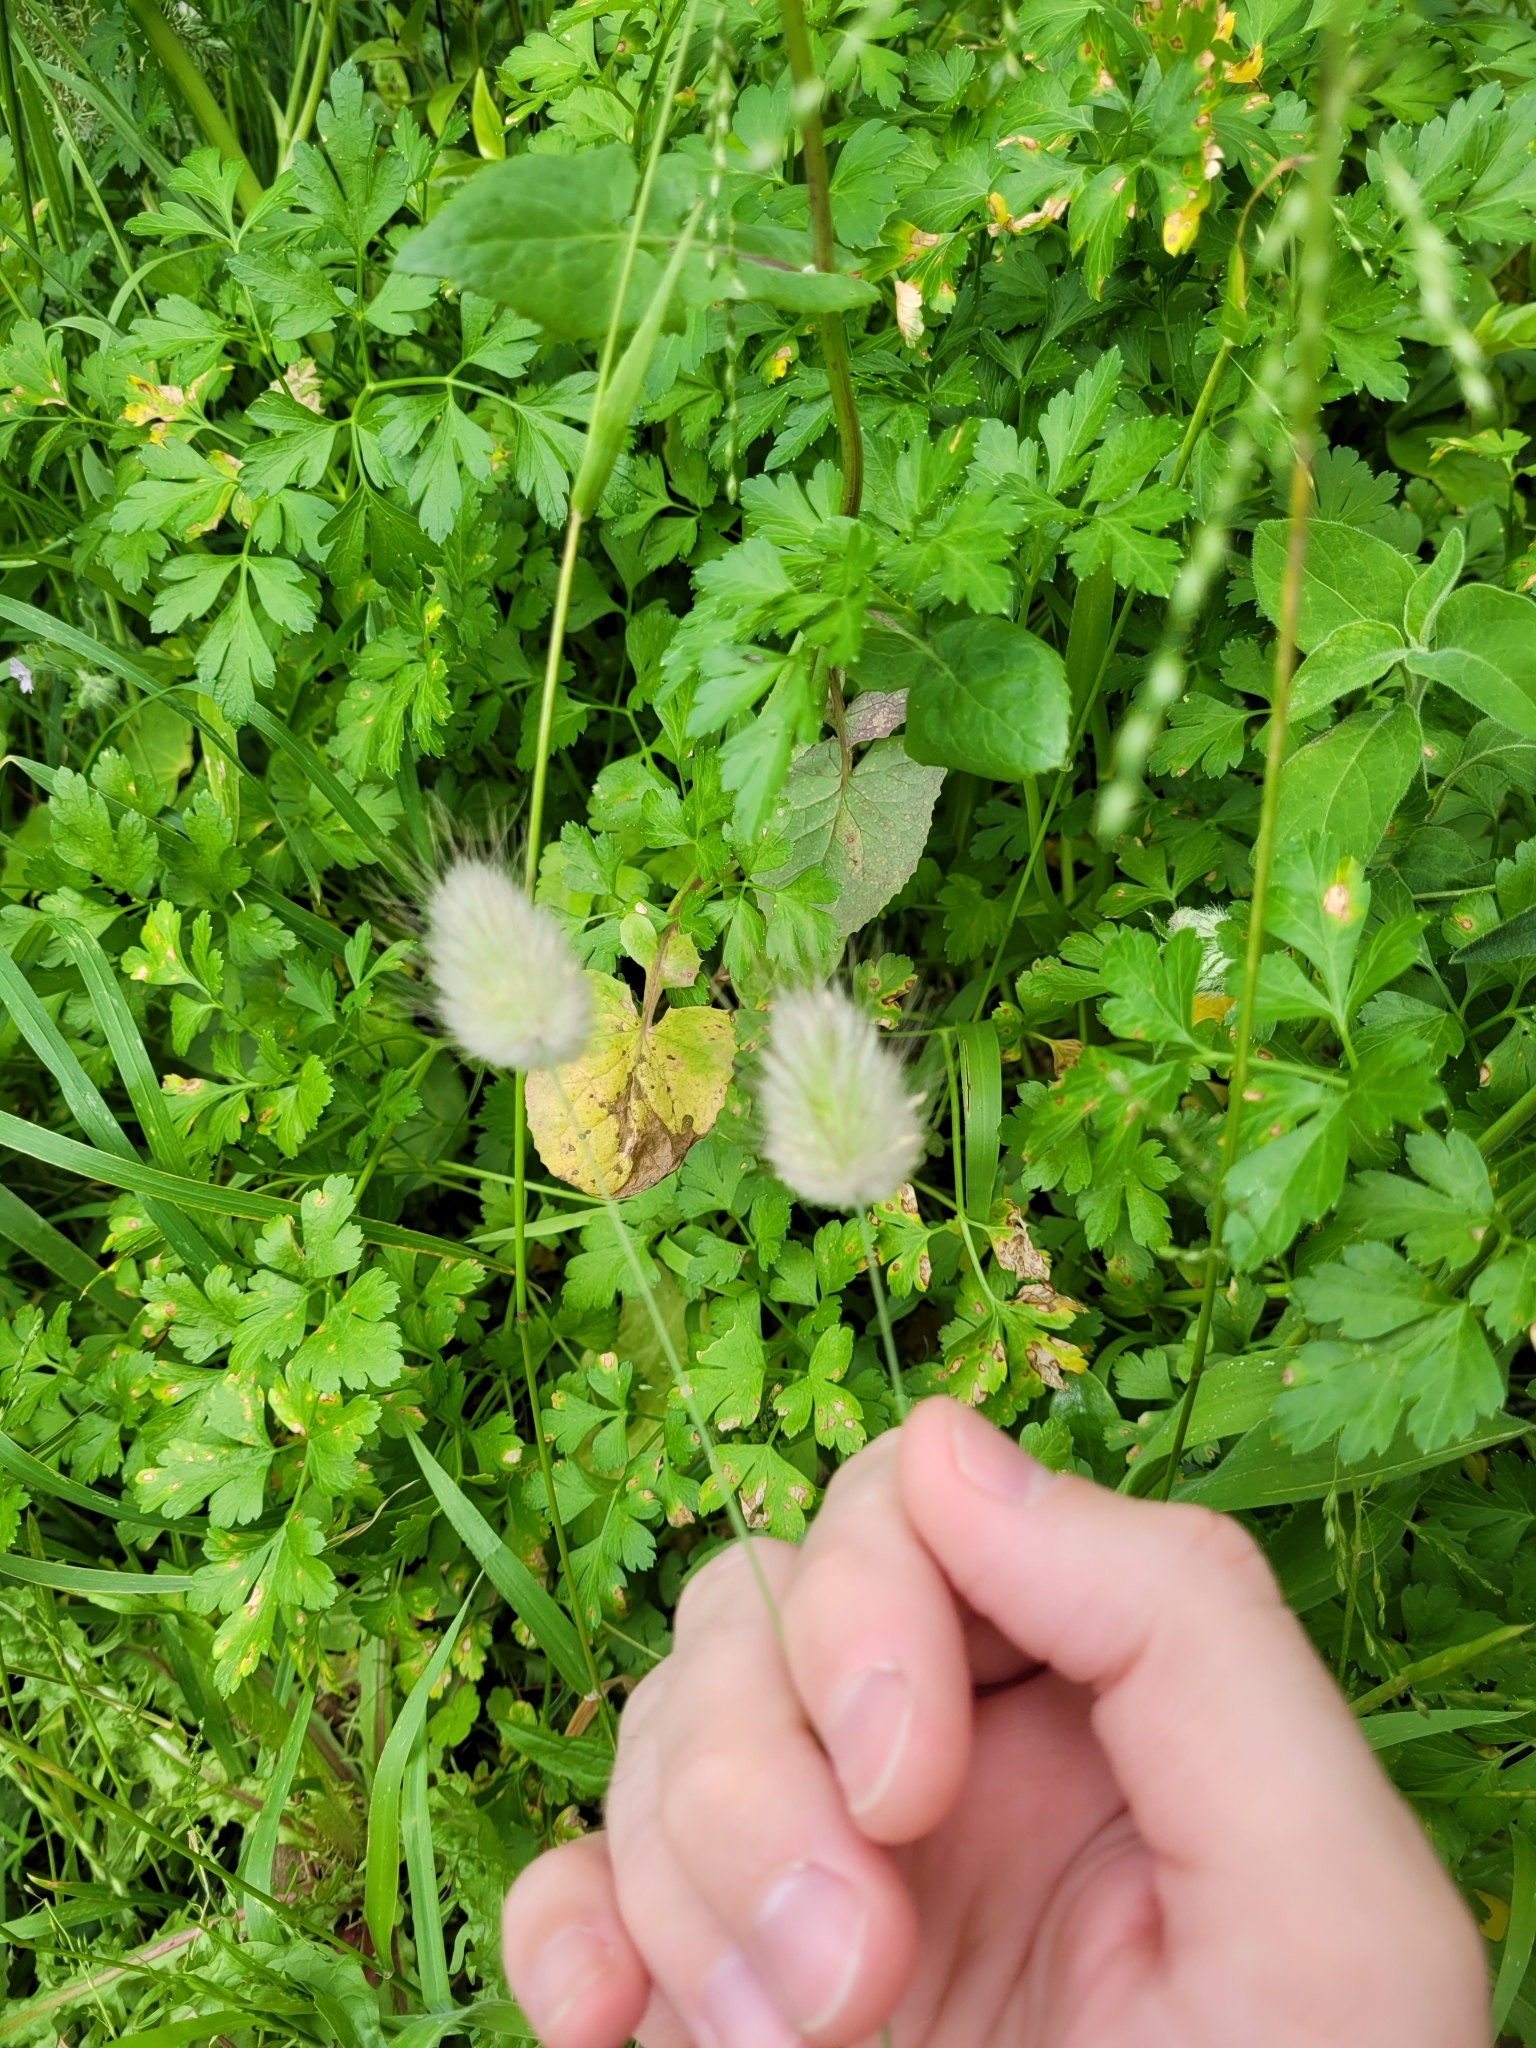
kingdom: Plantae
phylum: Tracheophyta
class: Liliopsida
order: Poales
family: Poaceae
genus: Lagurus
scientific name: Lagurus ovatus
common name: Hare's-tail
